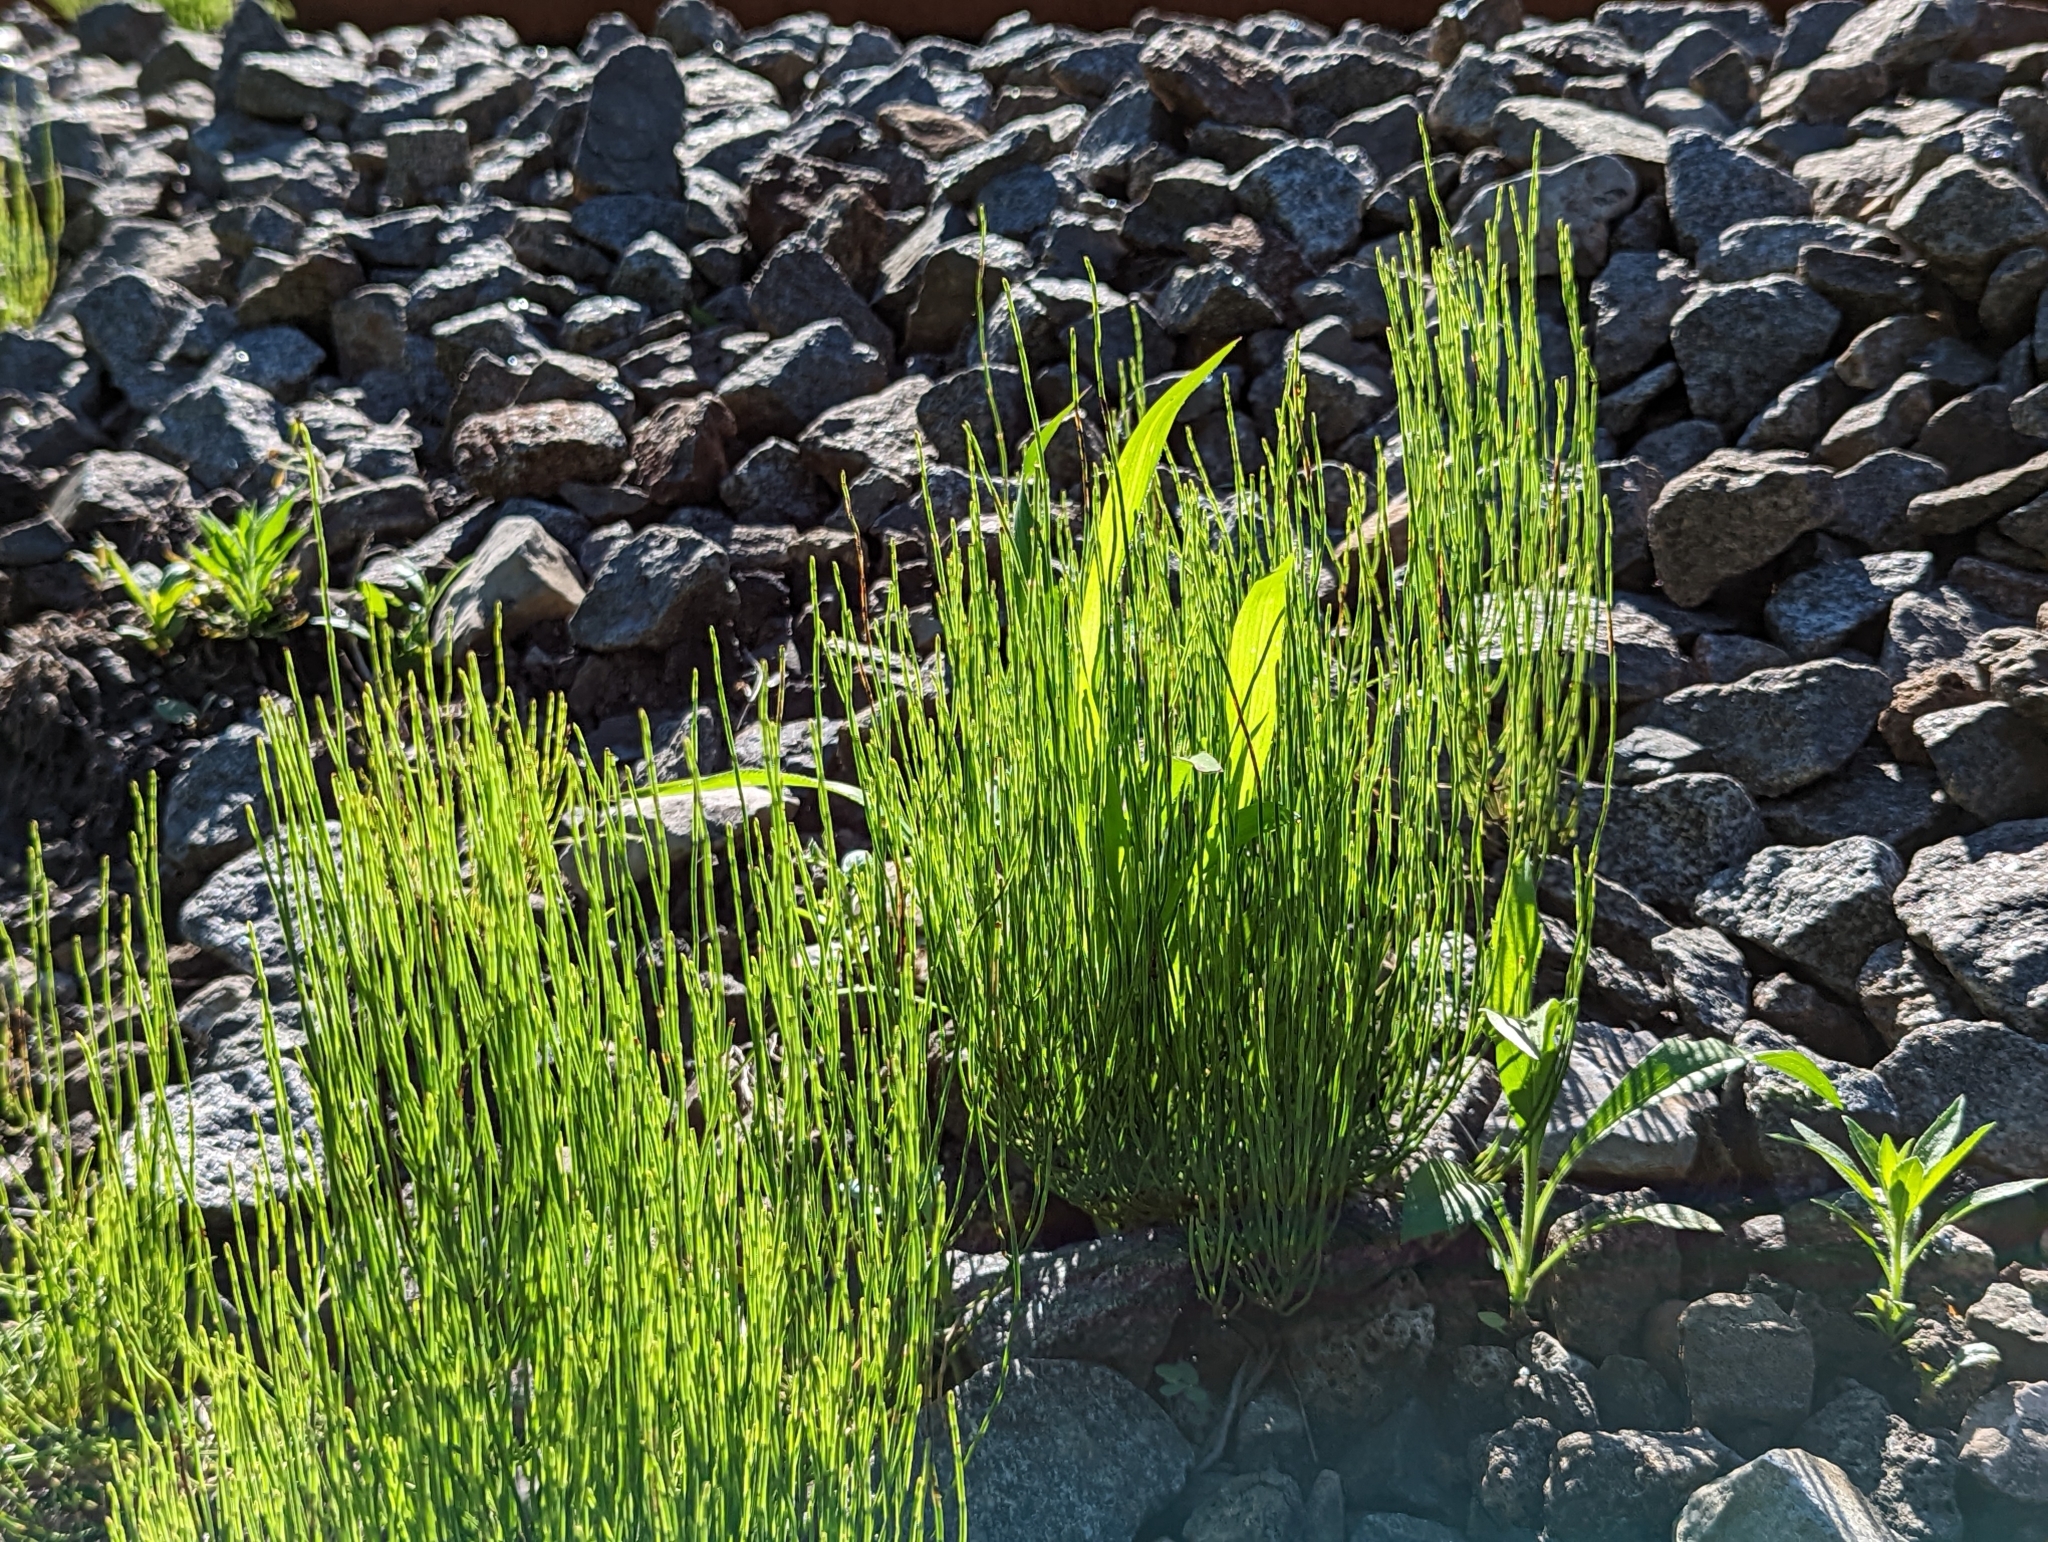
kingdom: Plantae
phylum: Tracheophyta
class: Polypodiopsida
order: Equisetales
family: Equisetaceae
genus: Equisetum
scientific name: Equisetum arvense
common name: Field horsetail
